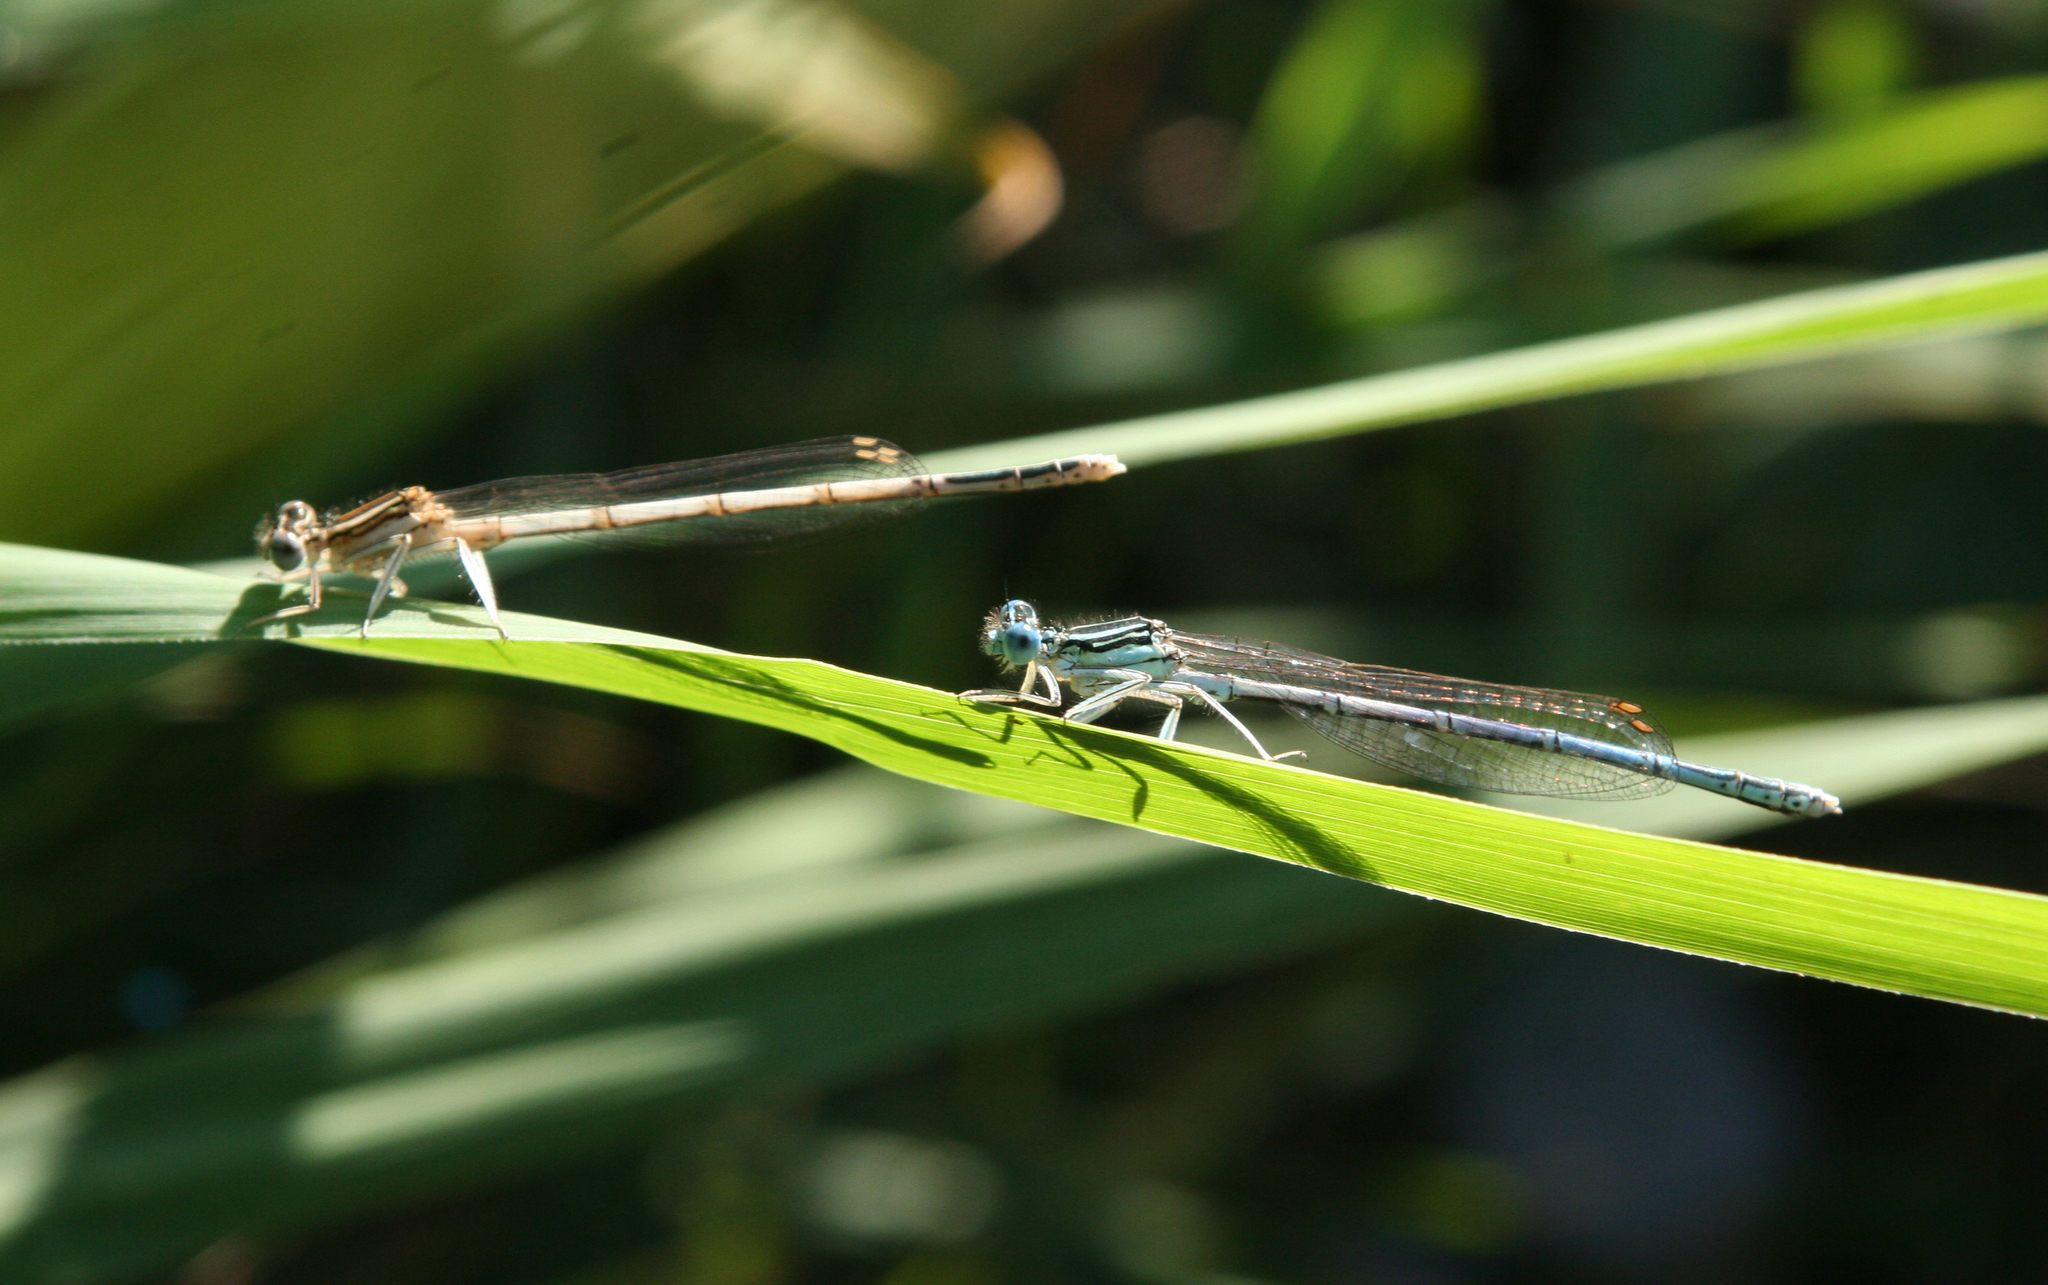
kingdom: Animalia
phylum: Arthropoda
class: Insecta
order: Odonata
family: Platycnemididae
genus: Platycnemis
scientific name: Platycnemis pennipes
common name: White-legged damselfly
